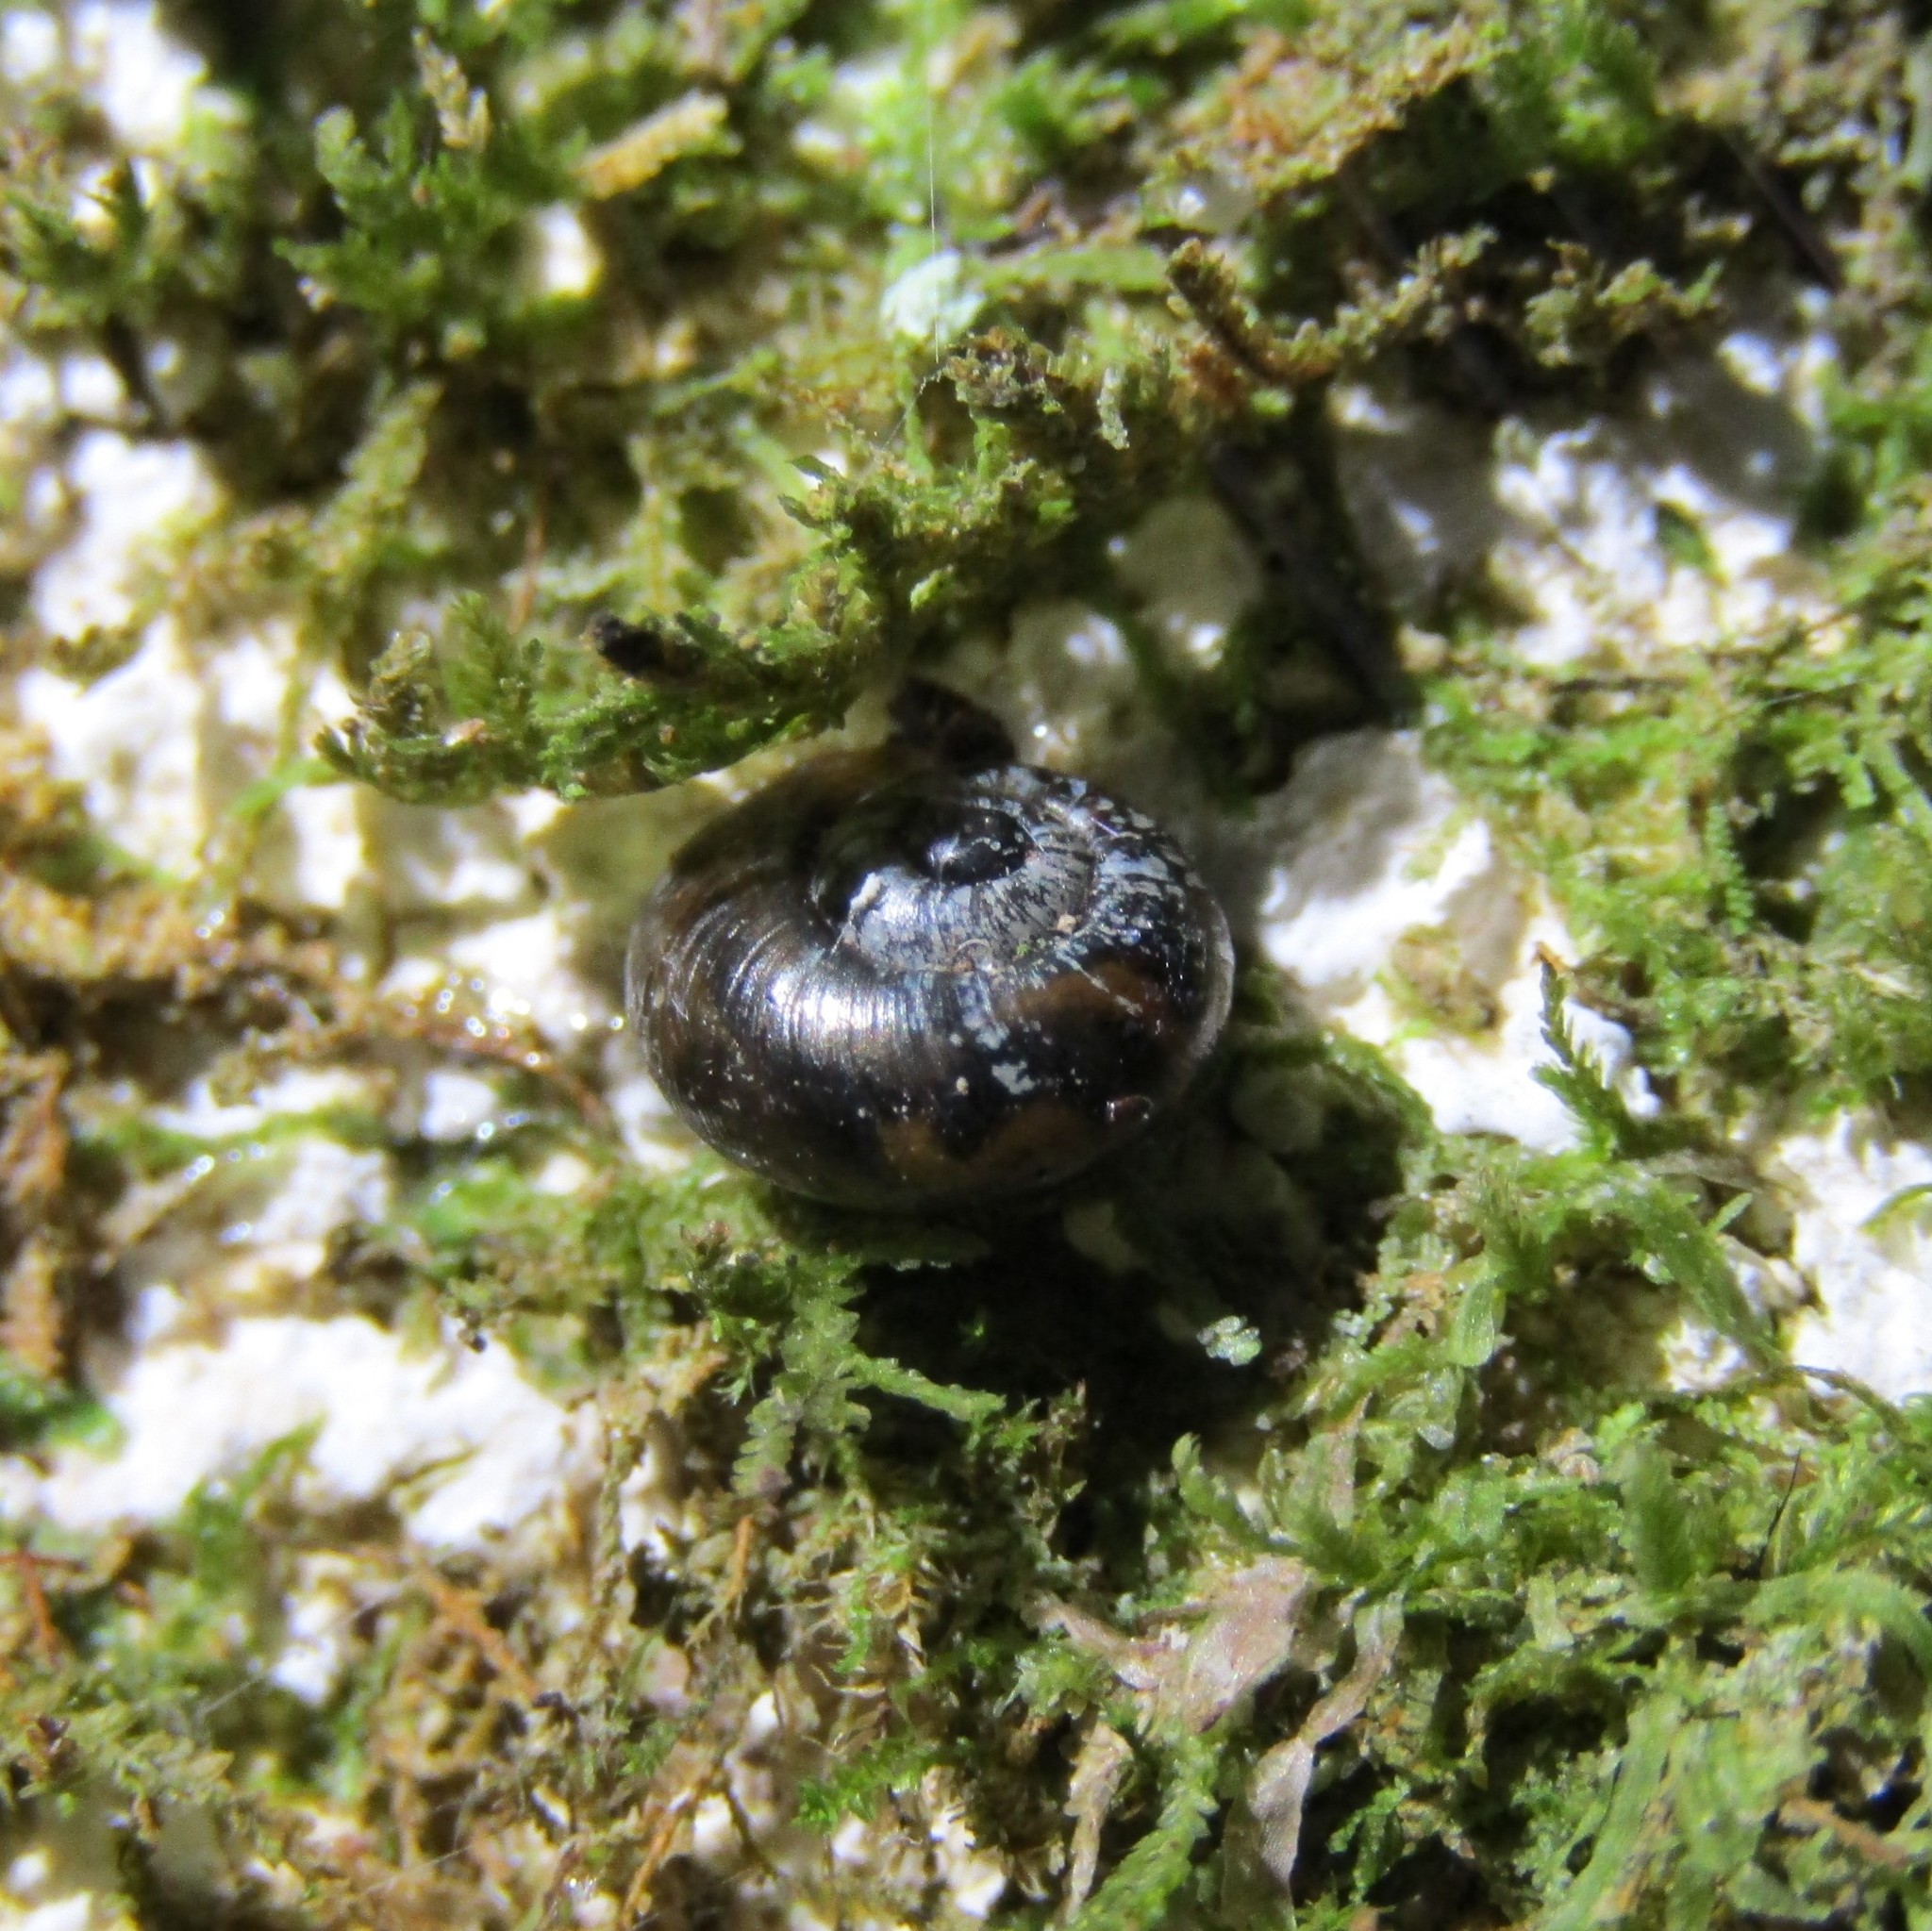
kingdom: Animalia
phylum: Mollusca
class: Gastropoda
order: Stylommatophora
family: Charopidae
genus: Flammulina
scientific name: Flammulina perdita
